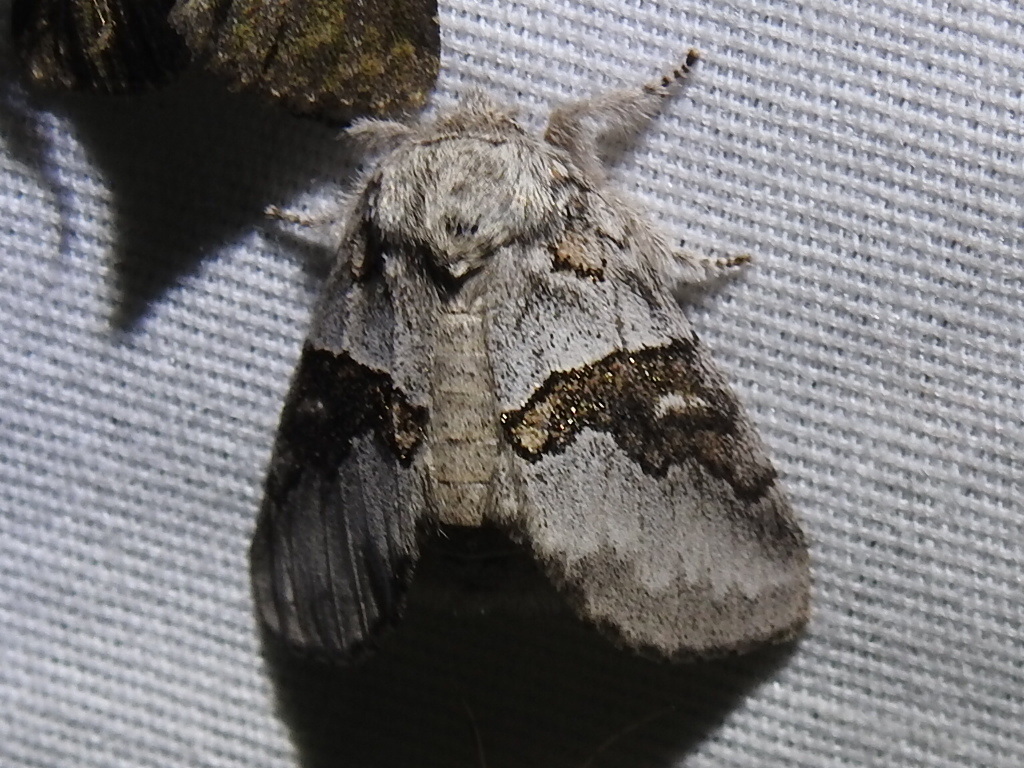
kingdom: Animalia
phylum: Arthropoda
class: Insecta
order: Lepidoptera
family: Notodontidae
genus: Gluphisia
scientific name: Gluphisia septentrionis
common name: Common gluphisia
